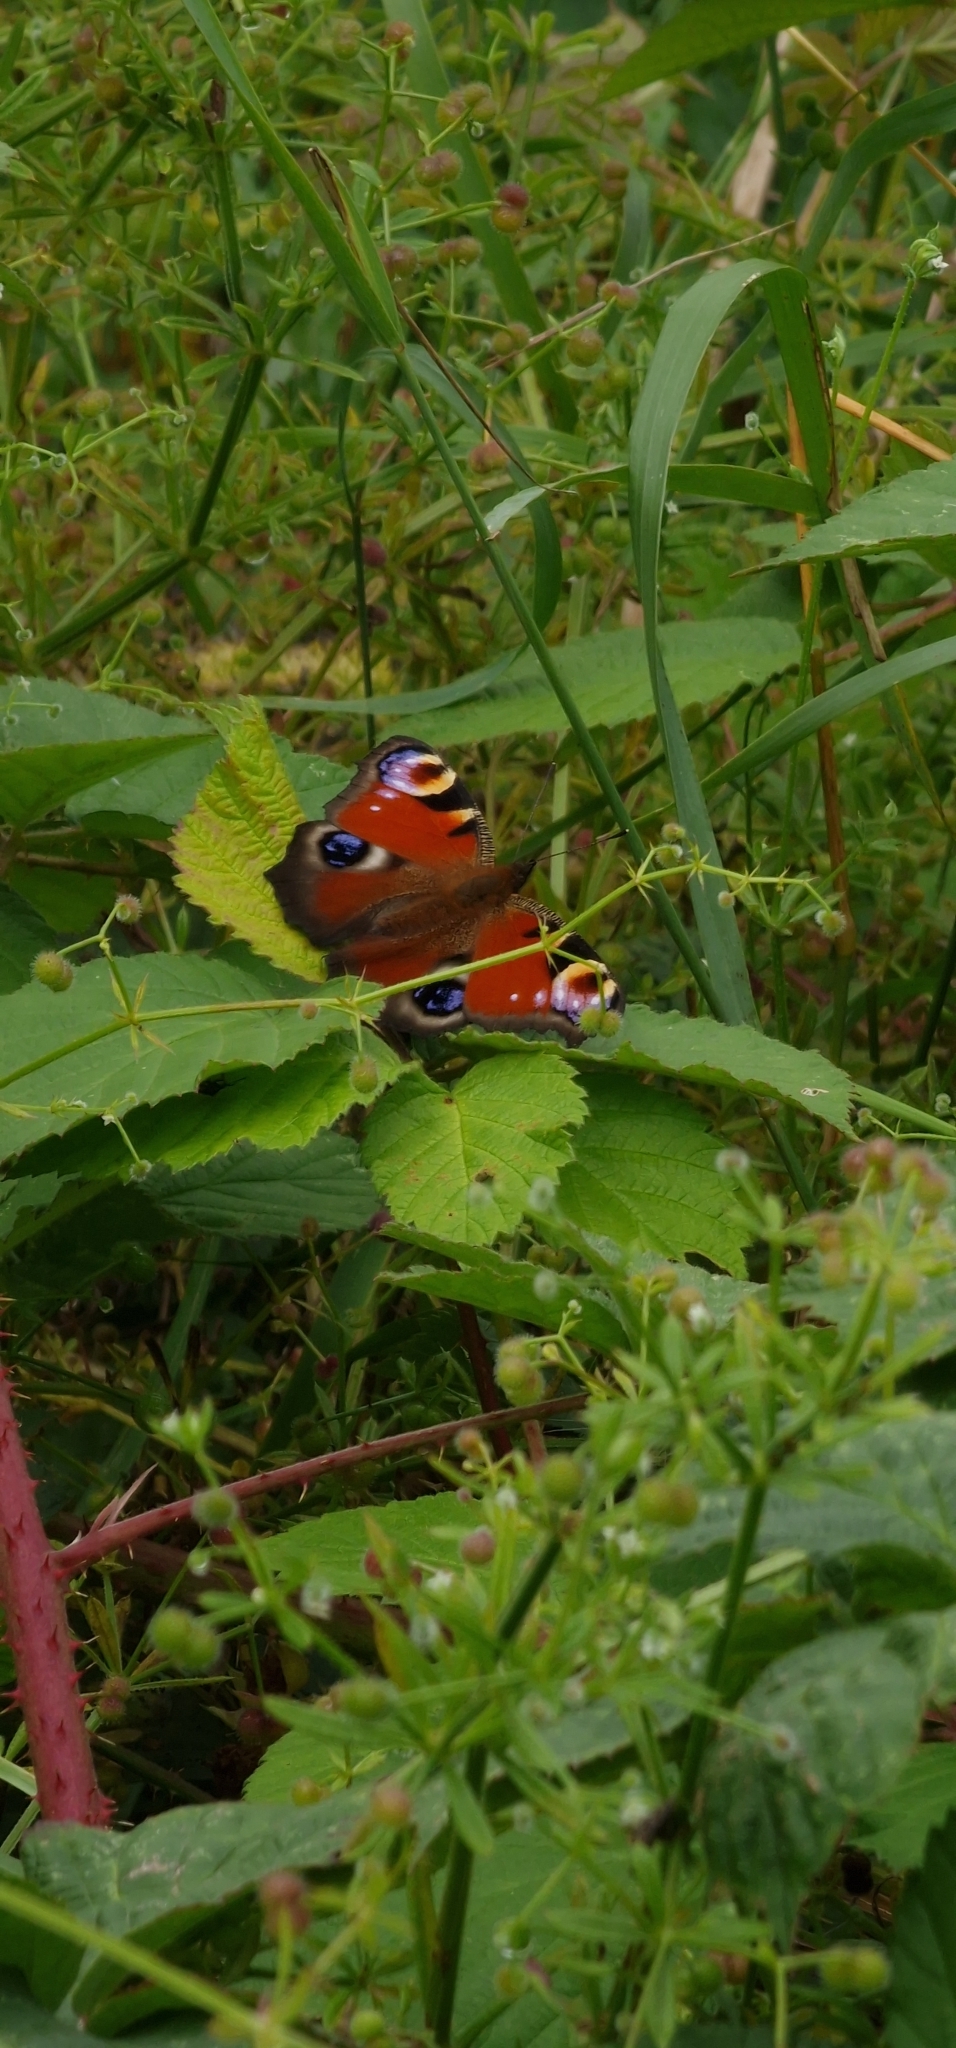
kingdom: Animalia
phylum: Arthropoda
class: Insecta
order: Lepidoptera
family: Nymphalidae
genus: Aglais
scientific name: Aglais io
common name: Peacock
